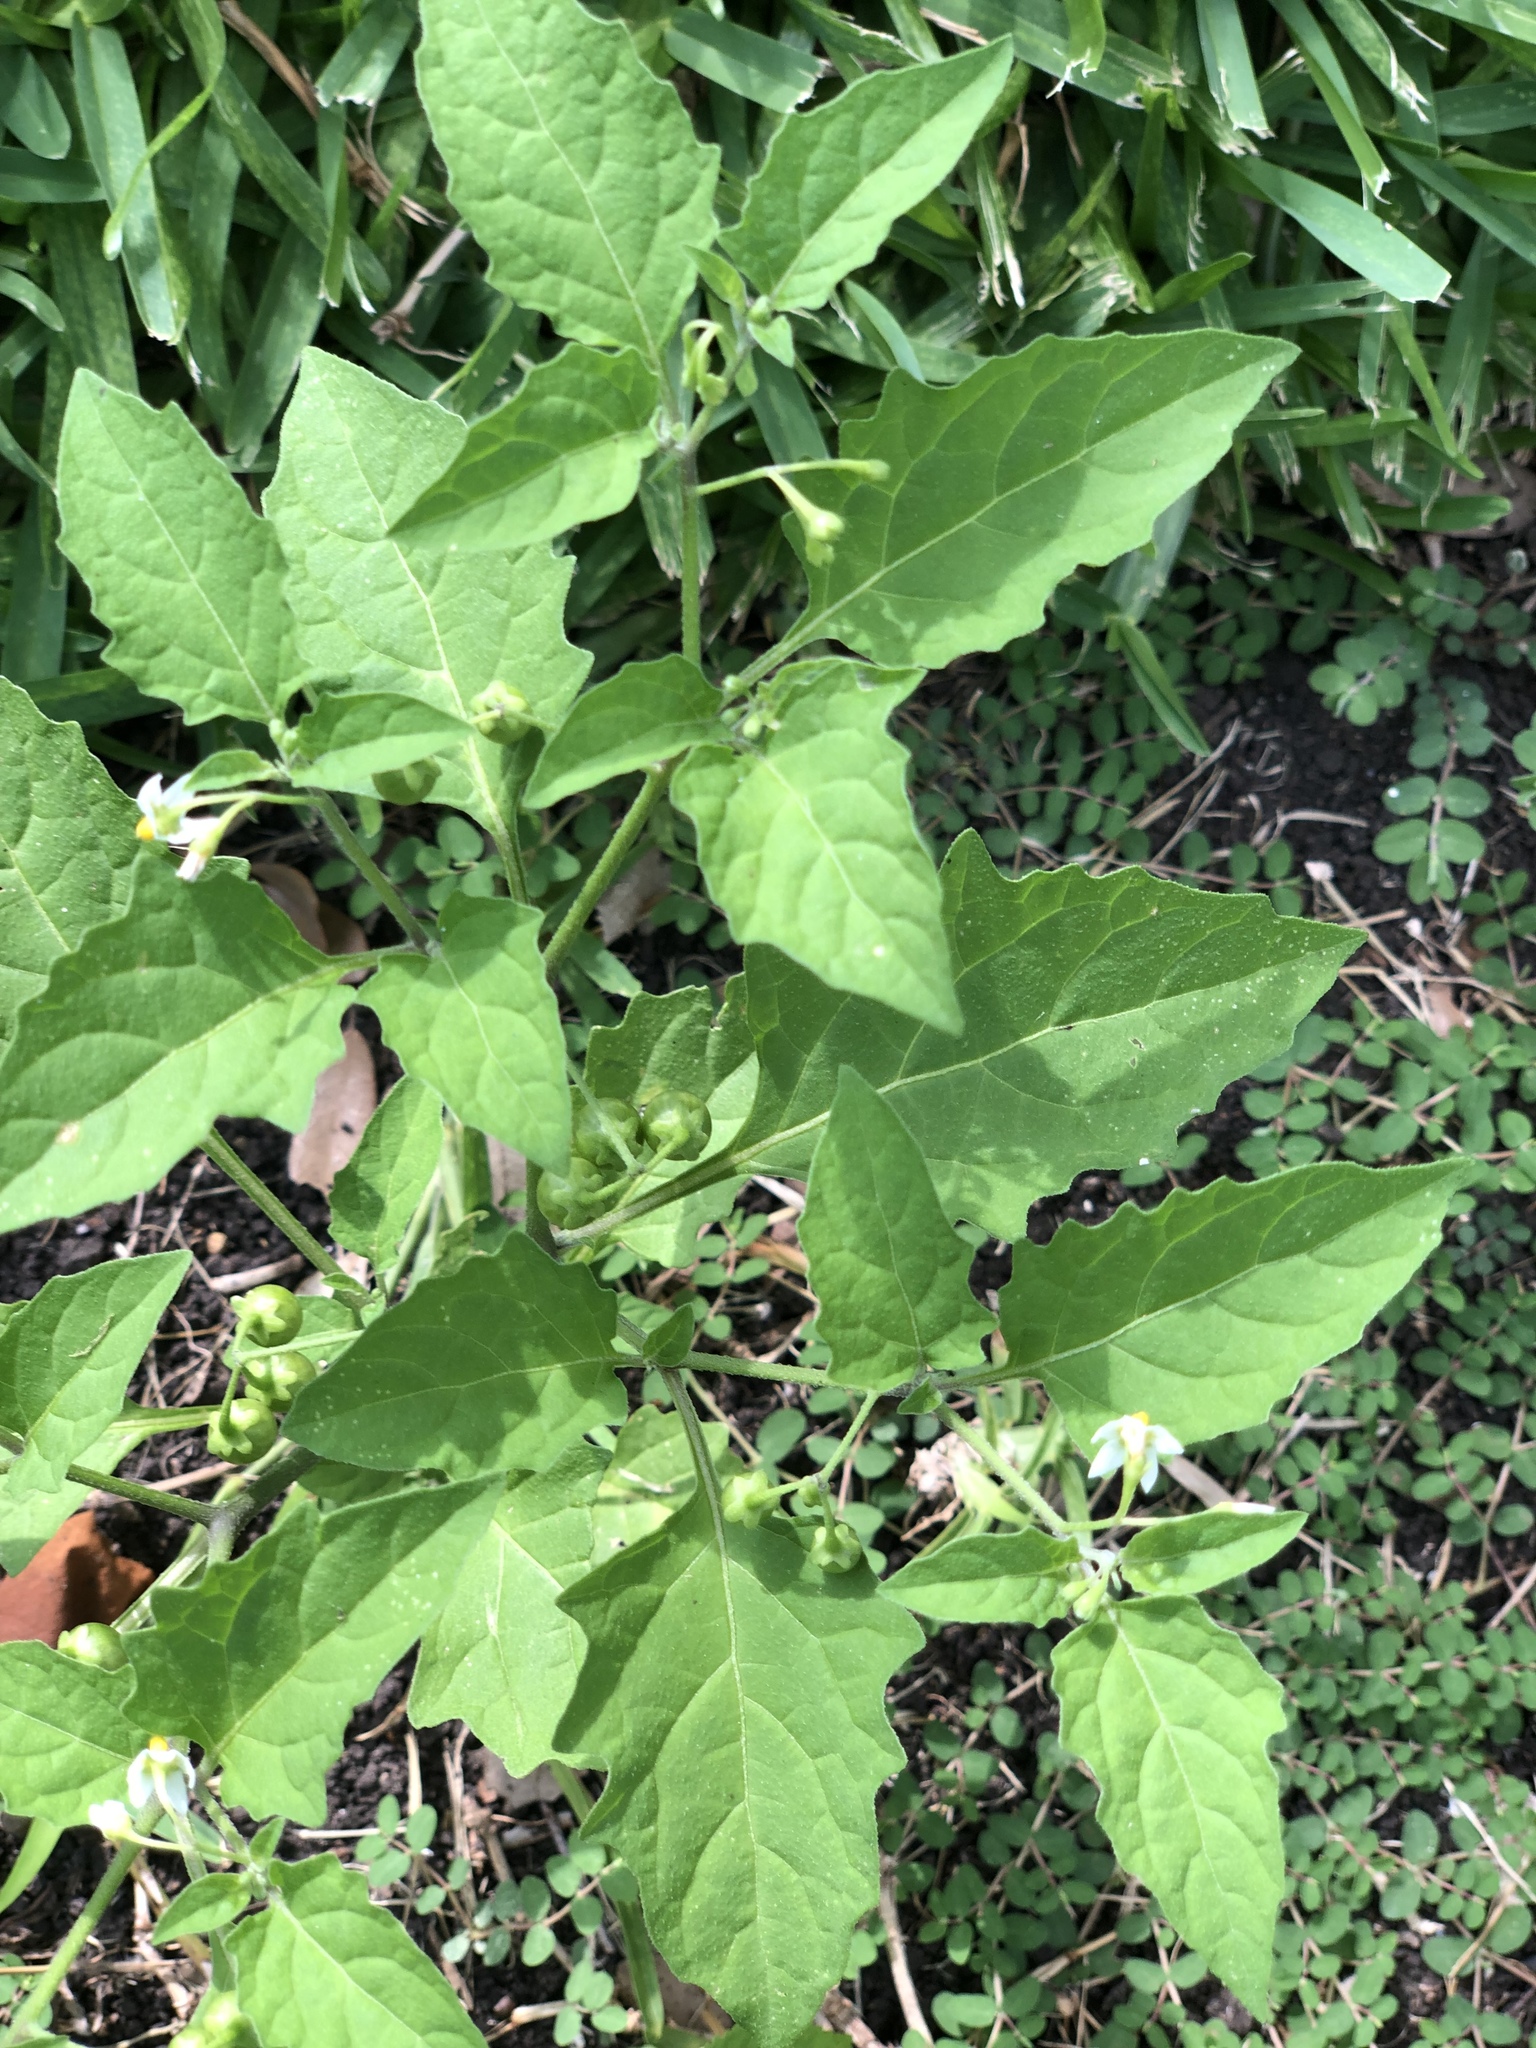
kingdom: Plantae
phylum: Tracheophyta
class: Magnoliopsida
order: Solanales
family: Solanaceae
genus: Solanum
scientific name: Solanum emulans
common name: Eastern black nightshade
